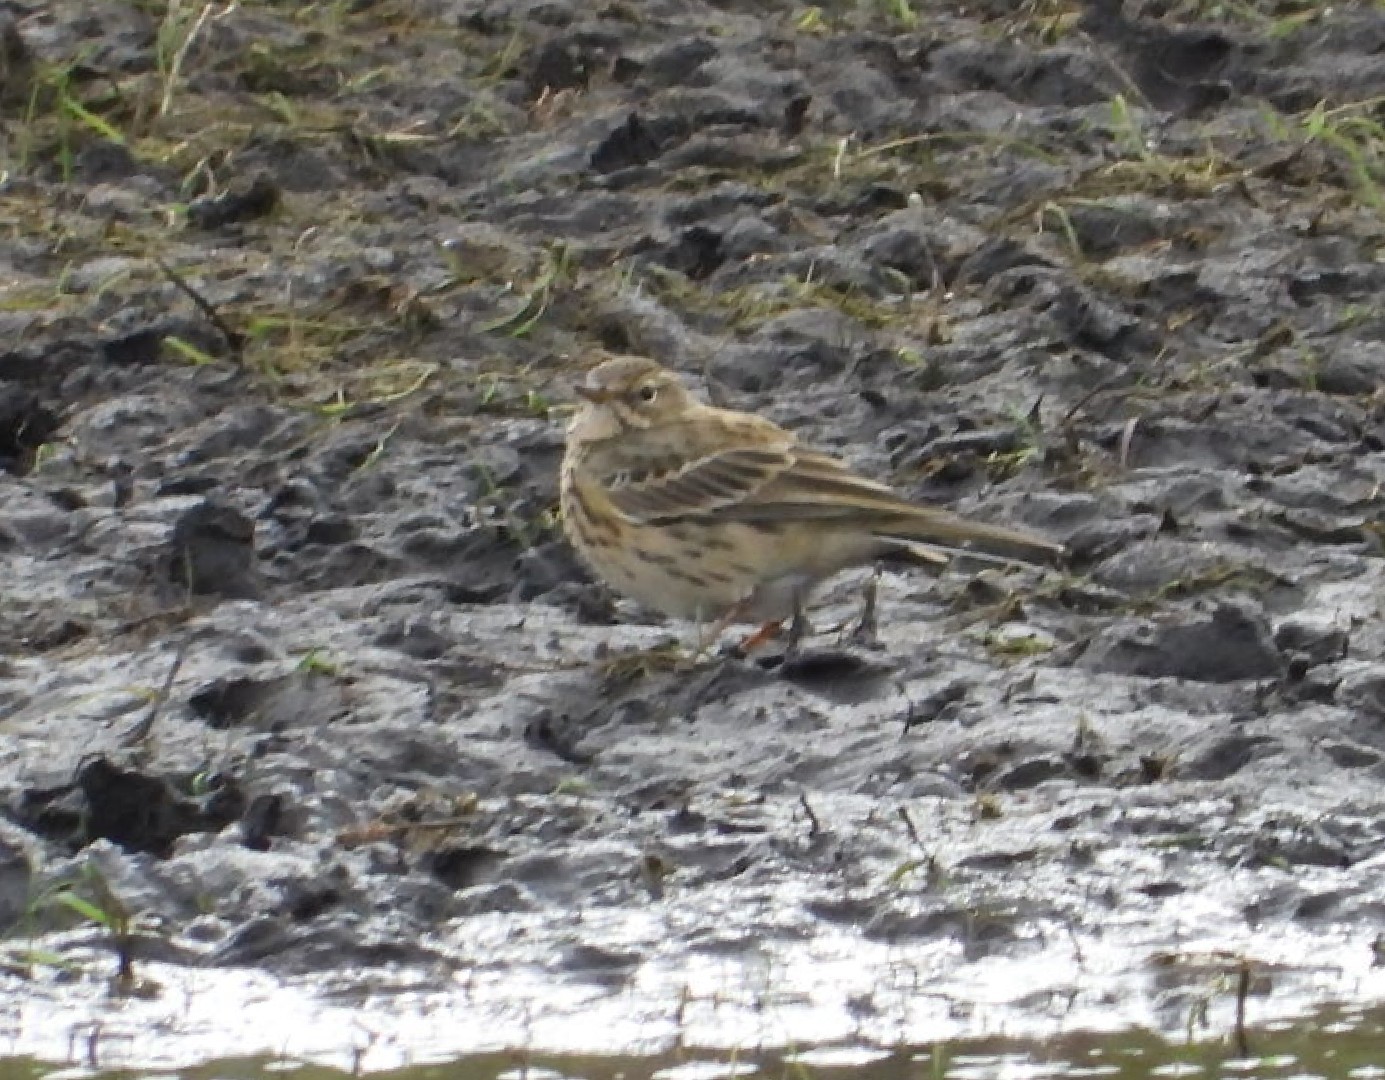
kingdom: Animalia
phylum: Chordata
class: Aves
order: Passeriformes
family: Motacillidae
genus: Anthus
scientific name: Anthus pratensis
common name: Meadow pipit
